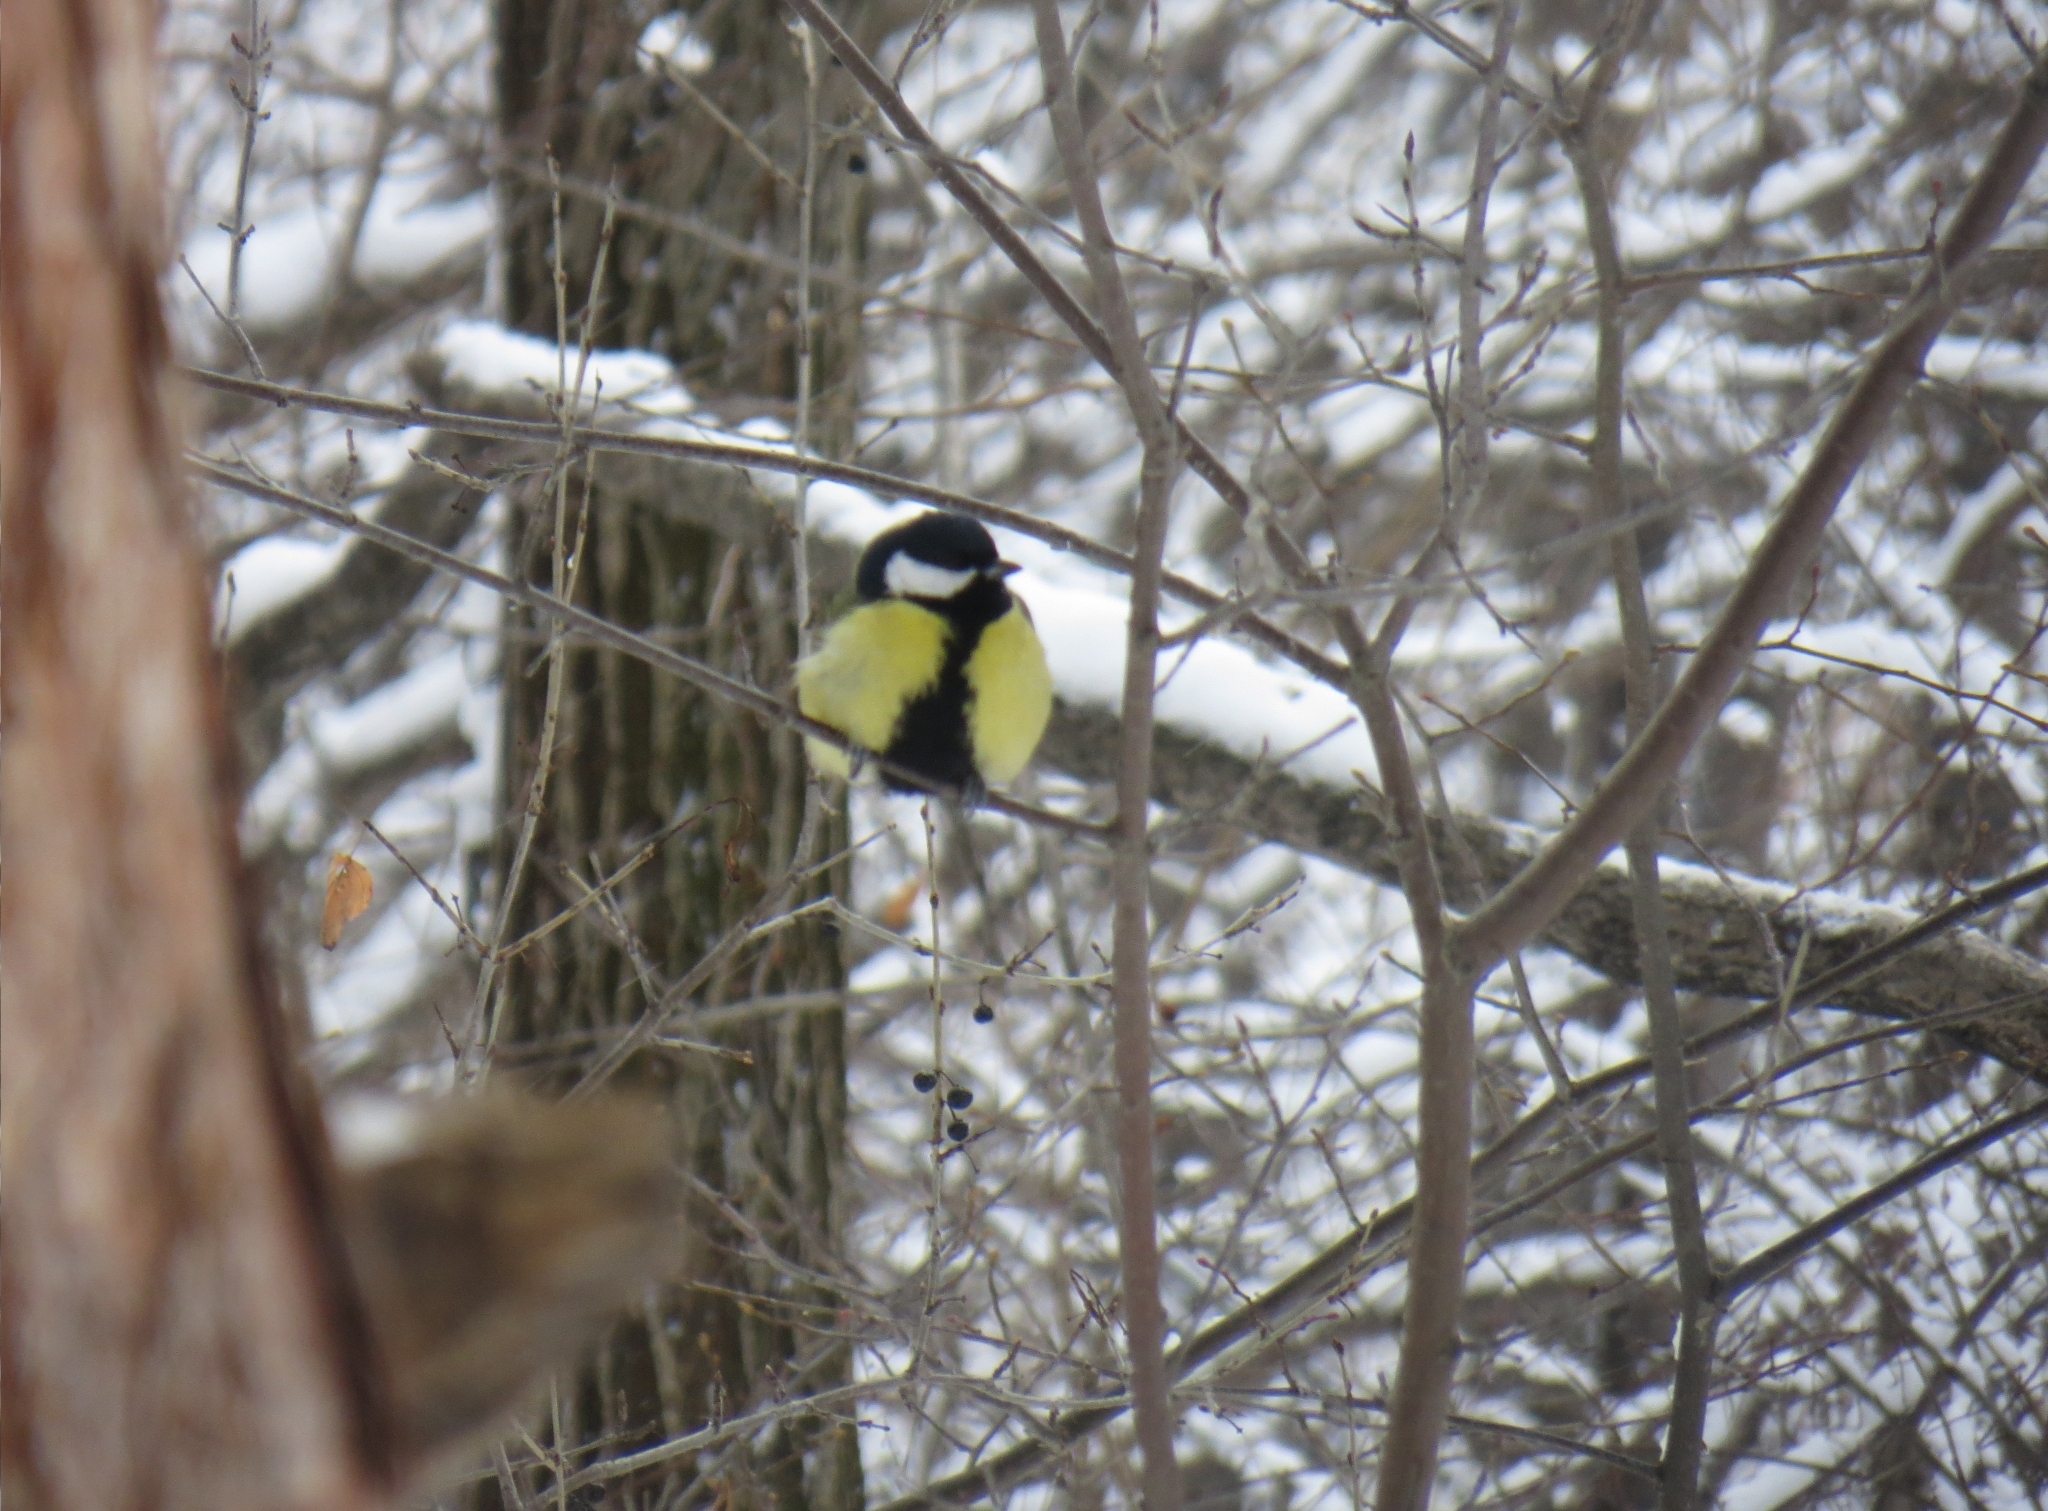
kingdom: Animalia
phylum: Chordata
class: Aves
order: Passeriformes
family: Paridae
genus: Parus
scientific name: Parus major
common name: Great tit
